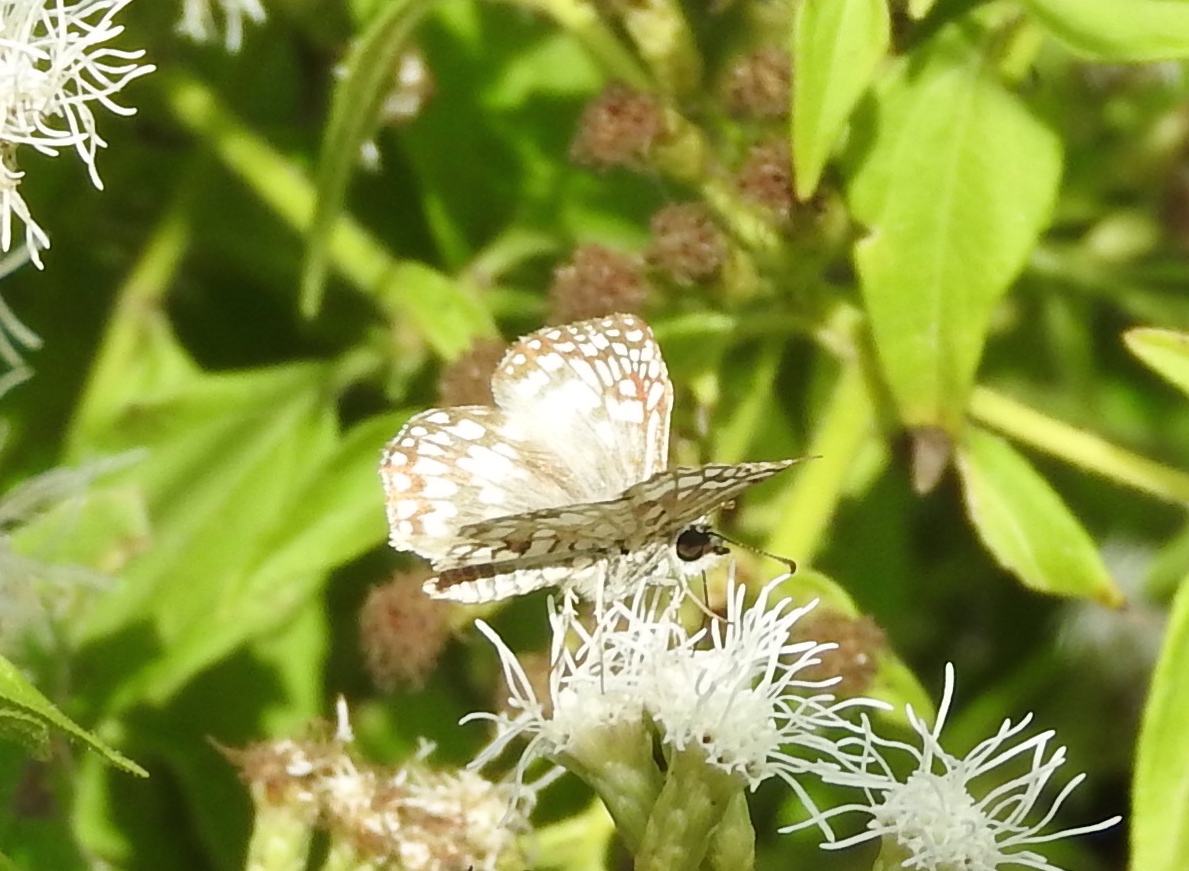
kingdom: Animalia
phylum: Arthropoda
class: Insecta
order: Lepidoptera
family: Hesperiidae
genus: Burnsius
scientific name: Burnsius
